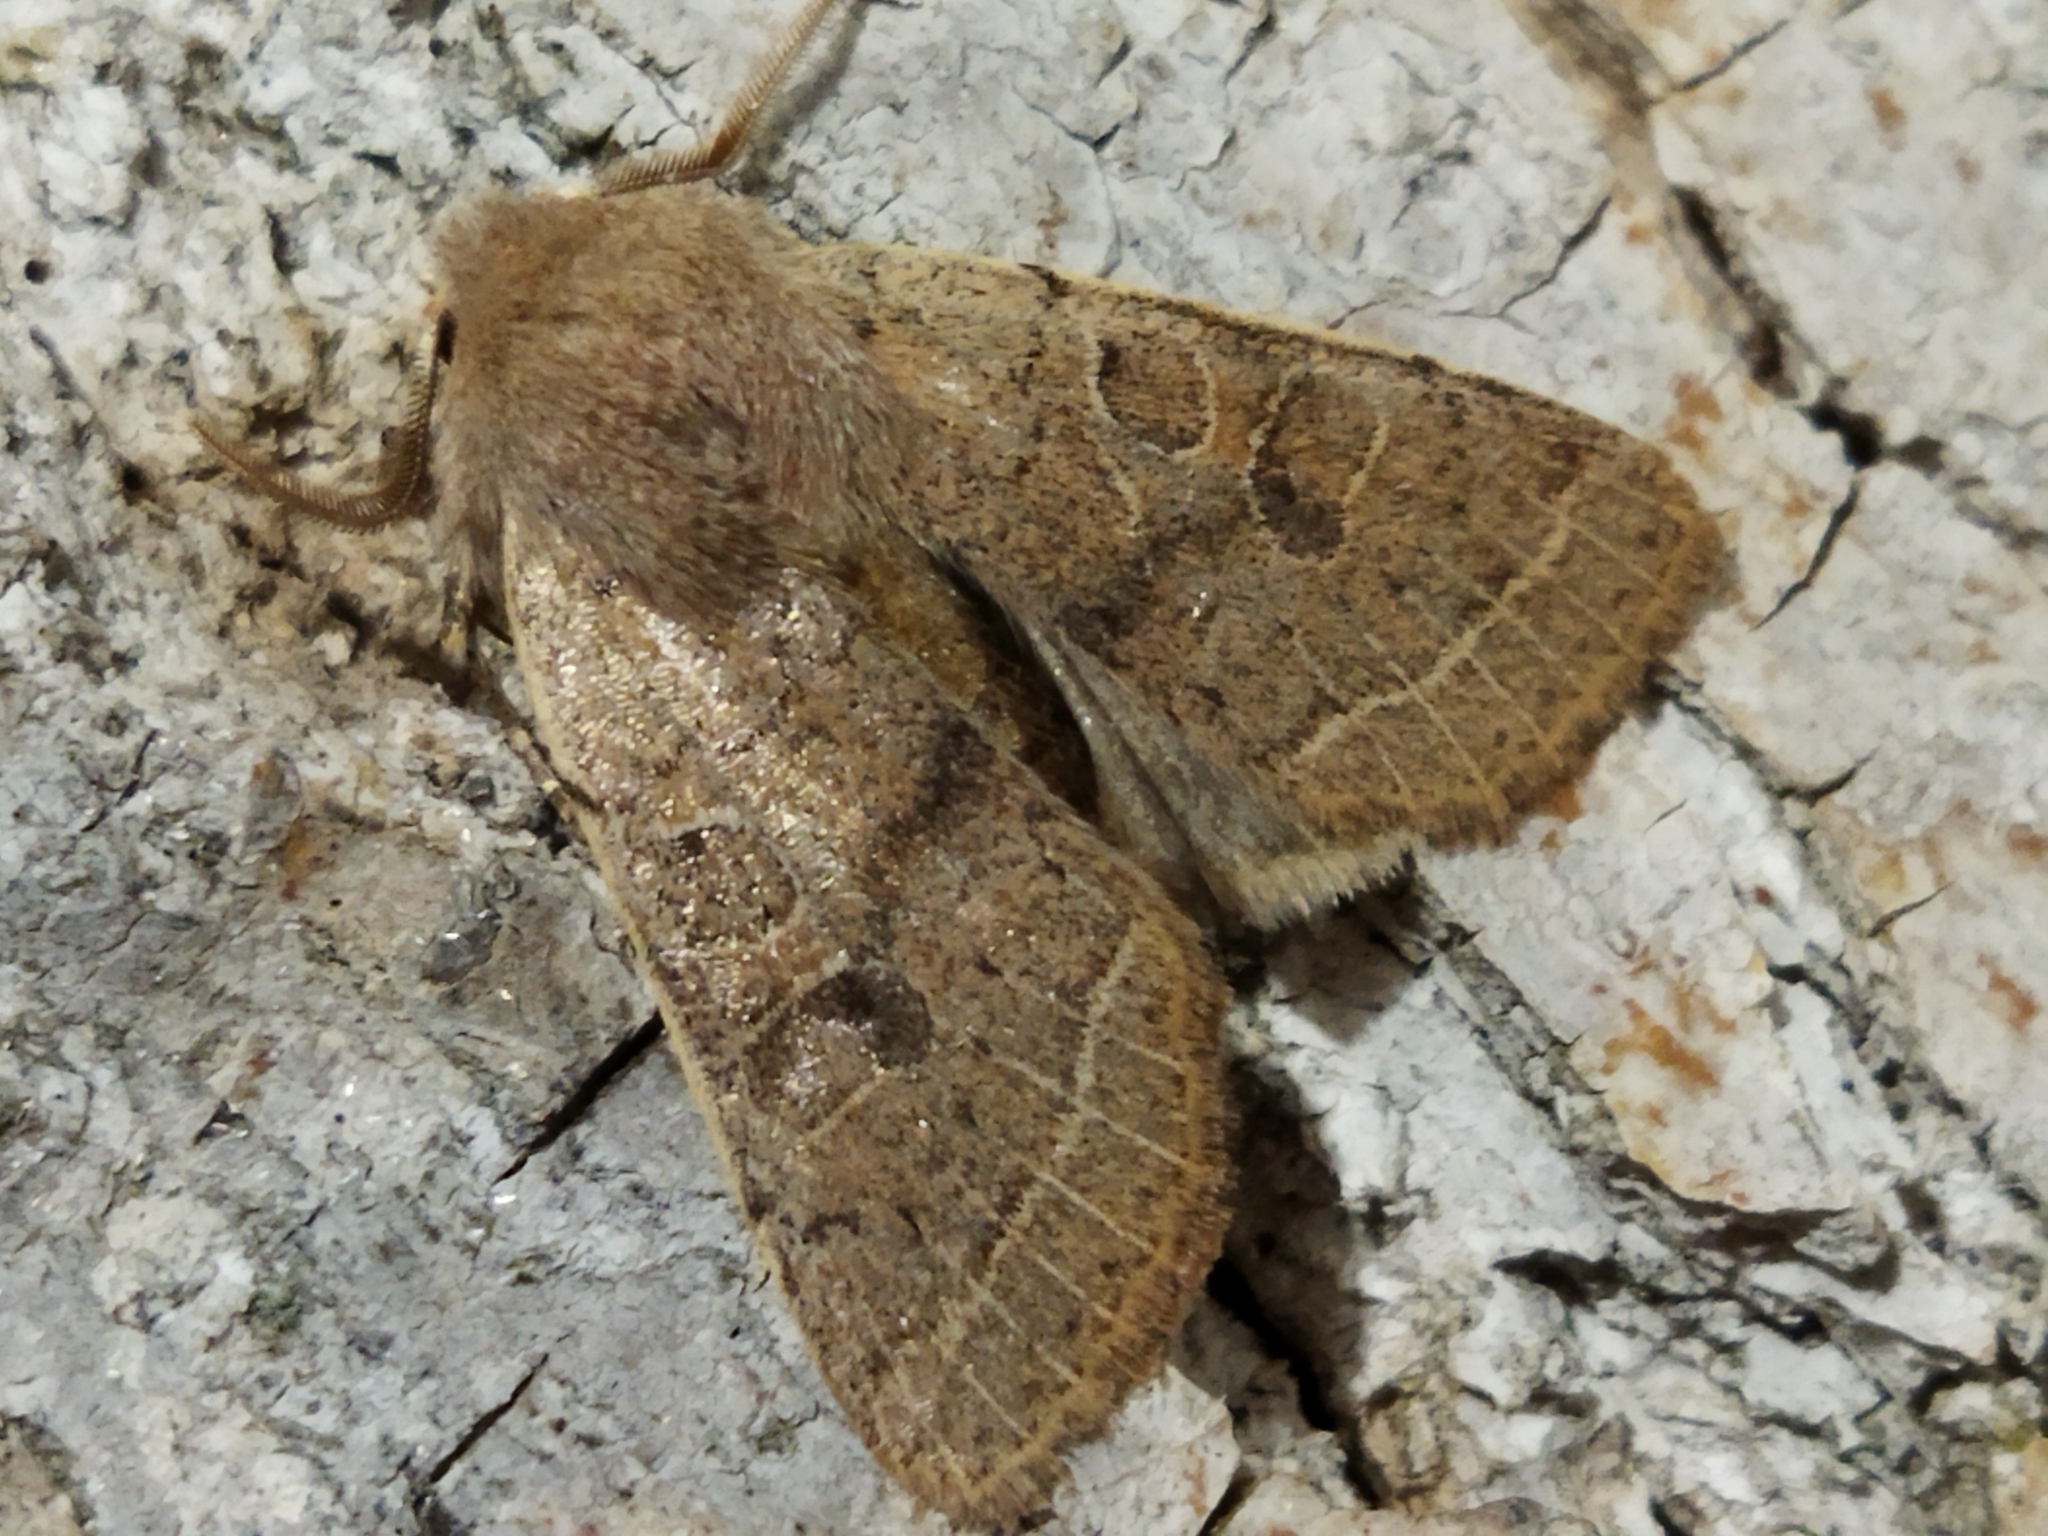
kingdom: Animalia
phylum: Arthropoda
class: Insecta
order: Lepidoptera
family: Noctuidae
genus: Orthosia
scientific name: Orthosia cerasi
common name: Common quaker
